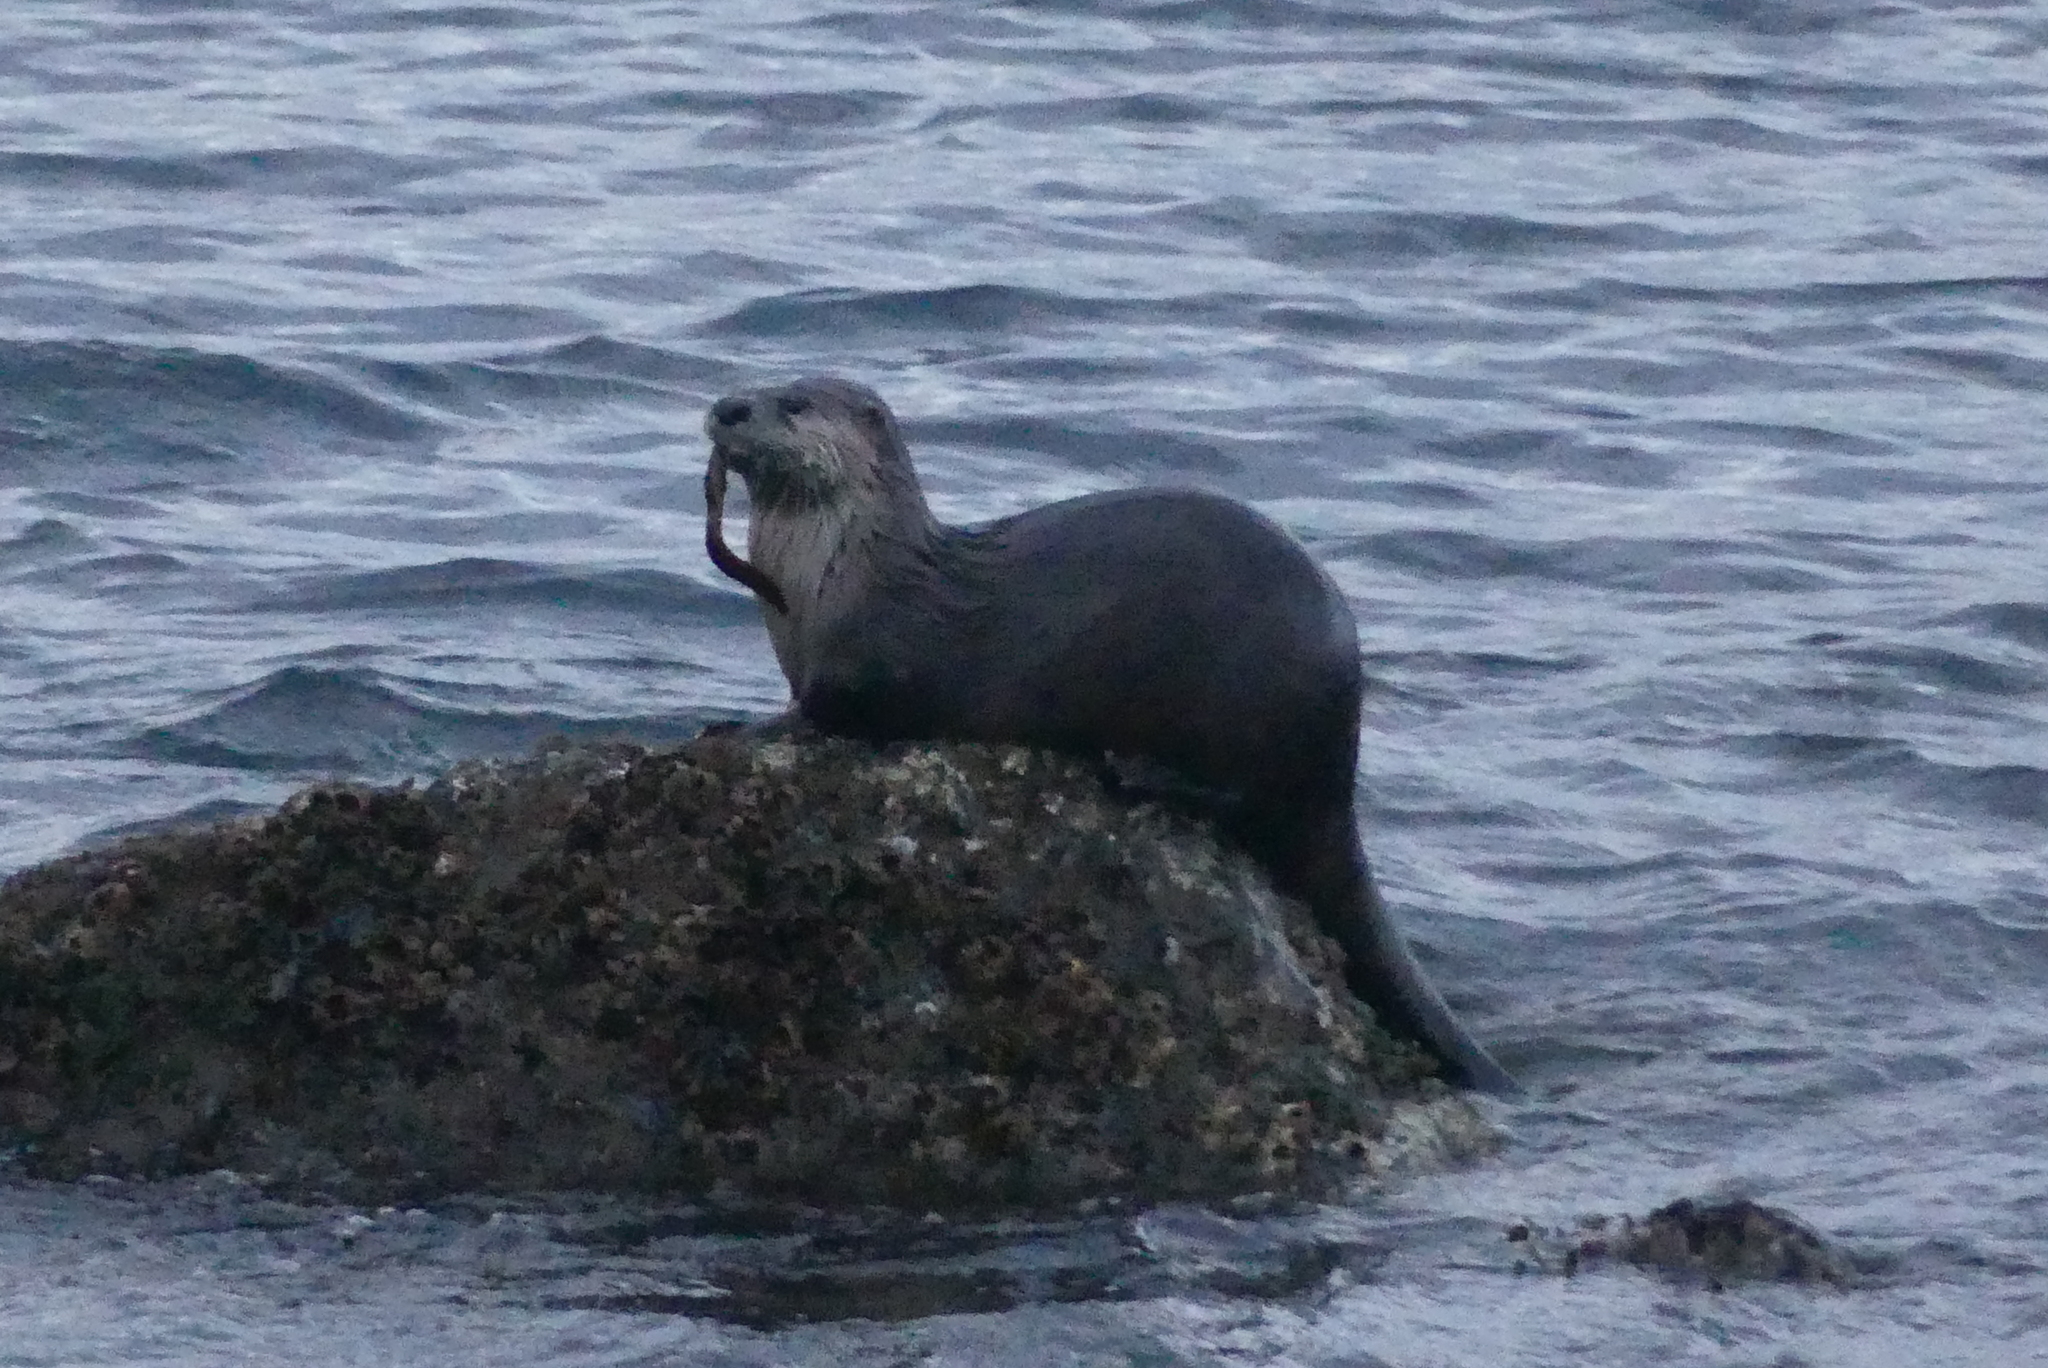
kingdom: Animalia
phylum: Chordata
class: Mammalia
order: Carnivora
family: Mustelidae
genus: Lontra
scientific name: Lontra canadensis
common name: North american river otter
